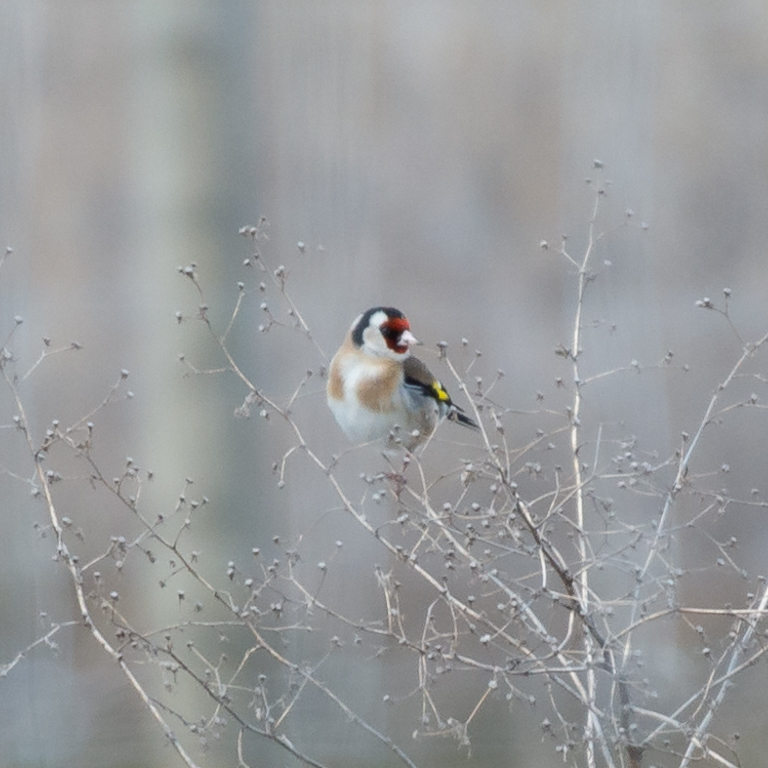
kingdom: Animalia
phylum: Chordata
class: Aves
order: Passeriformes
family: Fringillidae
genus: Carduelis
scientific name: Carduelis carduelis
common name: European goldfinch
